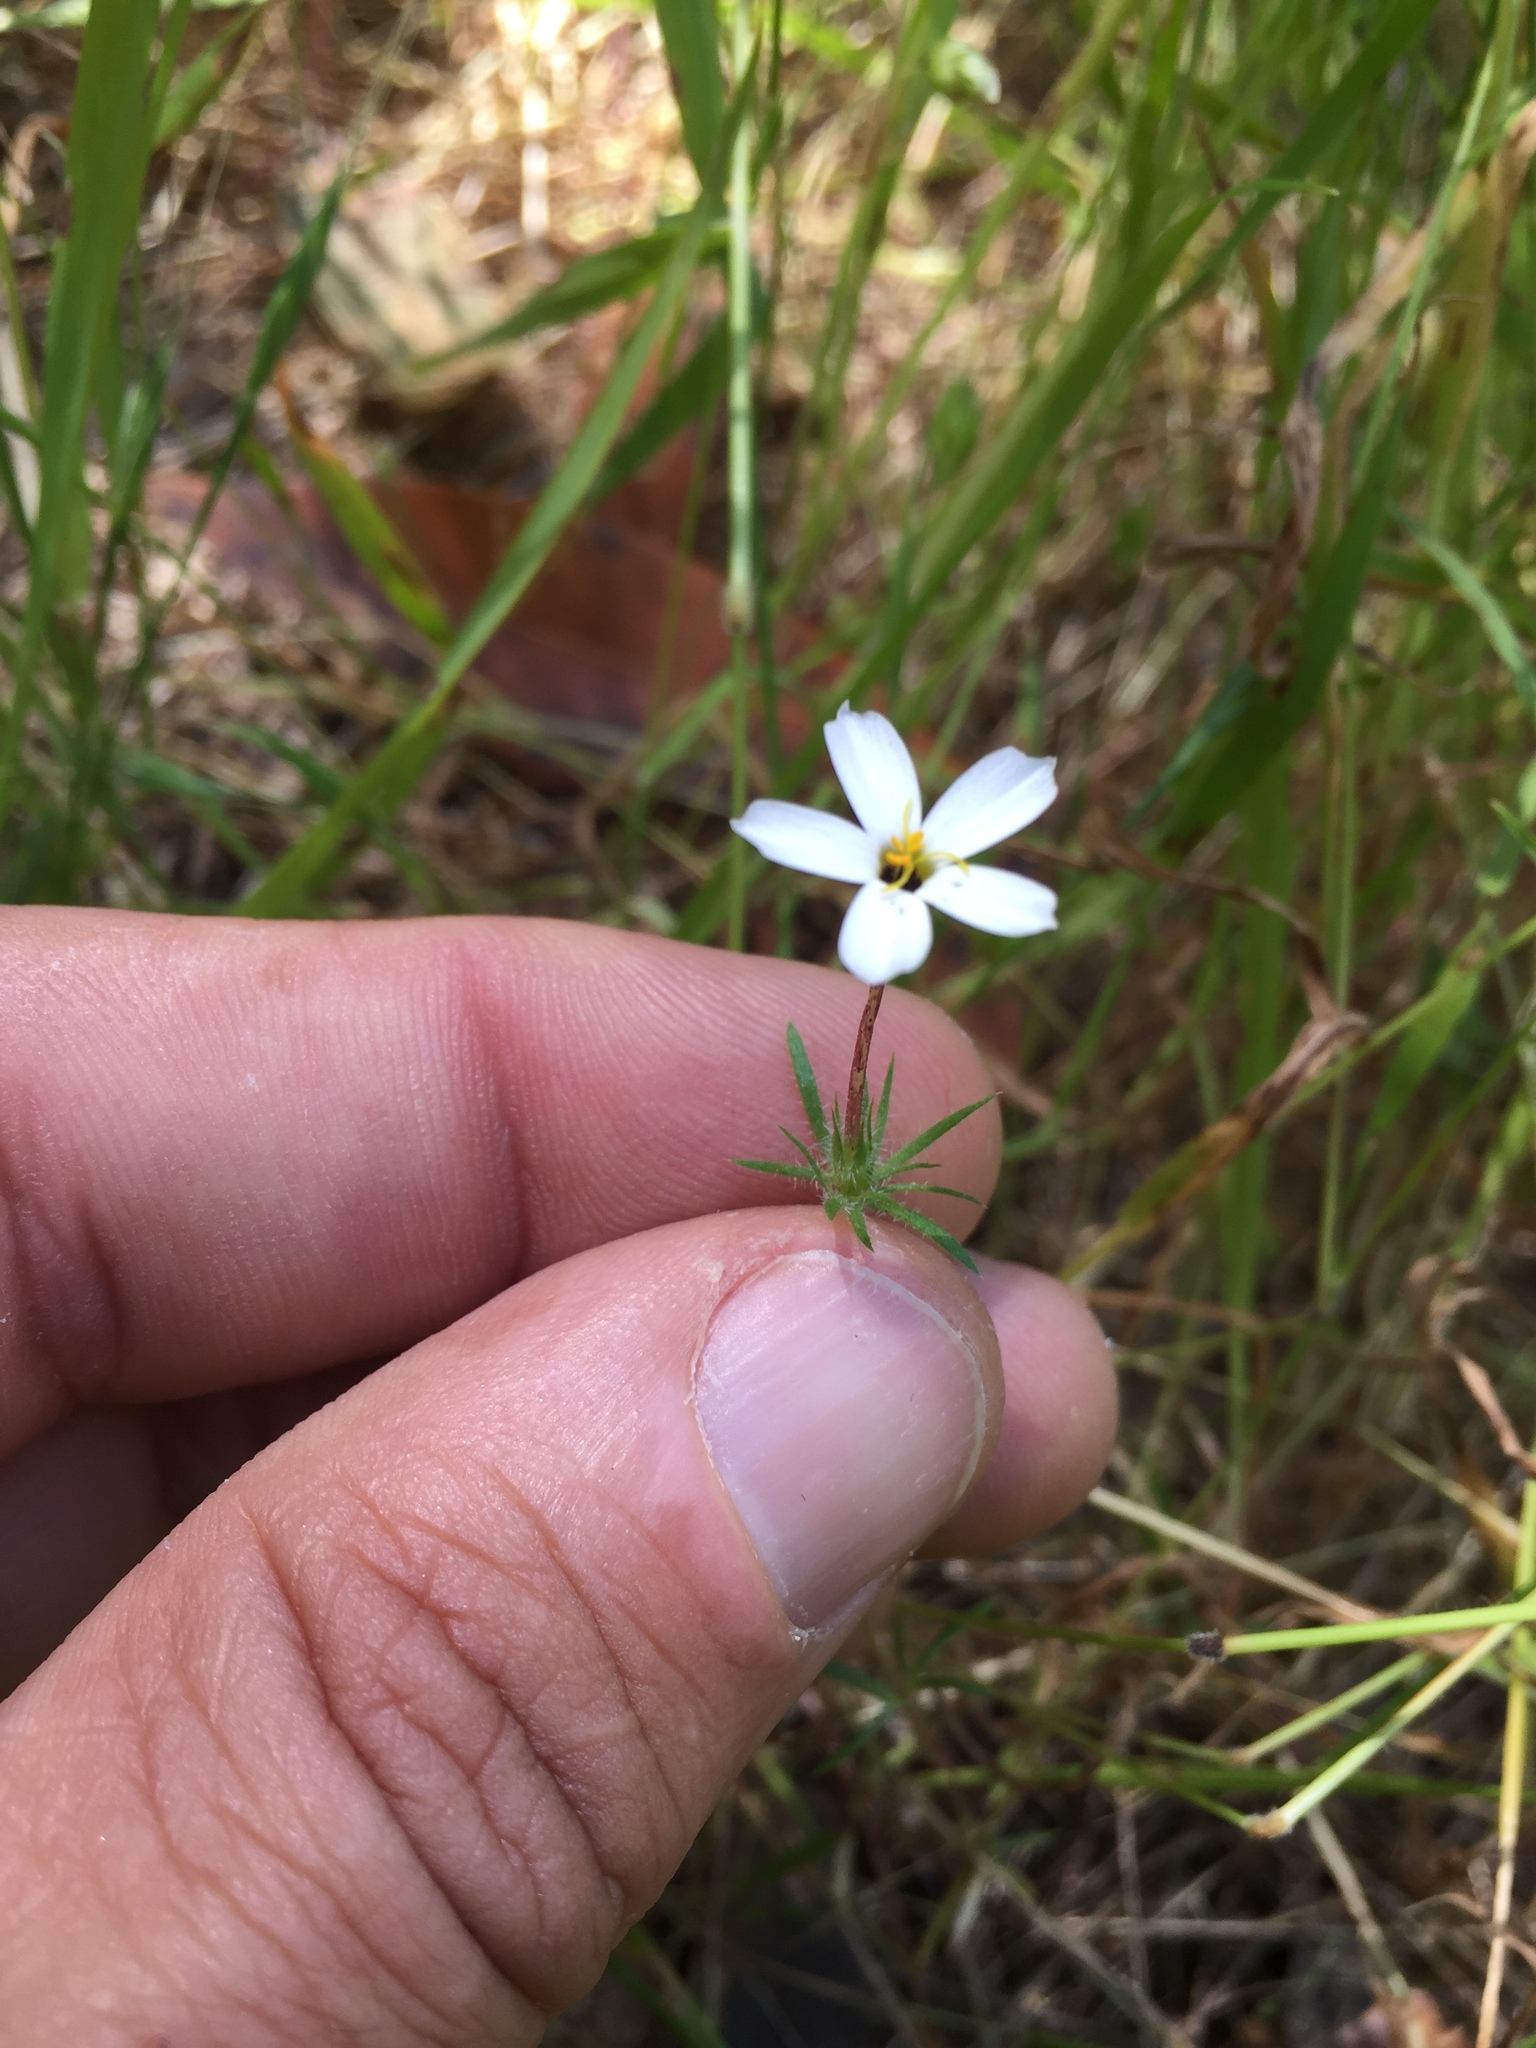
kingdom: Plantae
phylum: Tracheophyta
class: Magnoliopsida
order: Ericales
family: Polemoniaceae
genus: Leptosiphon
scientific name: Leptosiphon androsaceus
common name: False babystars
